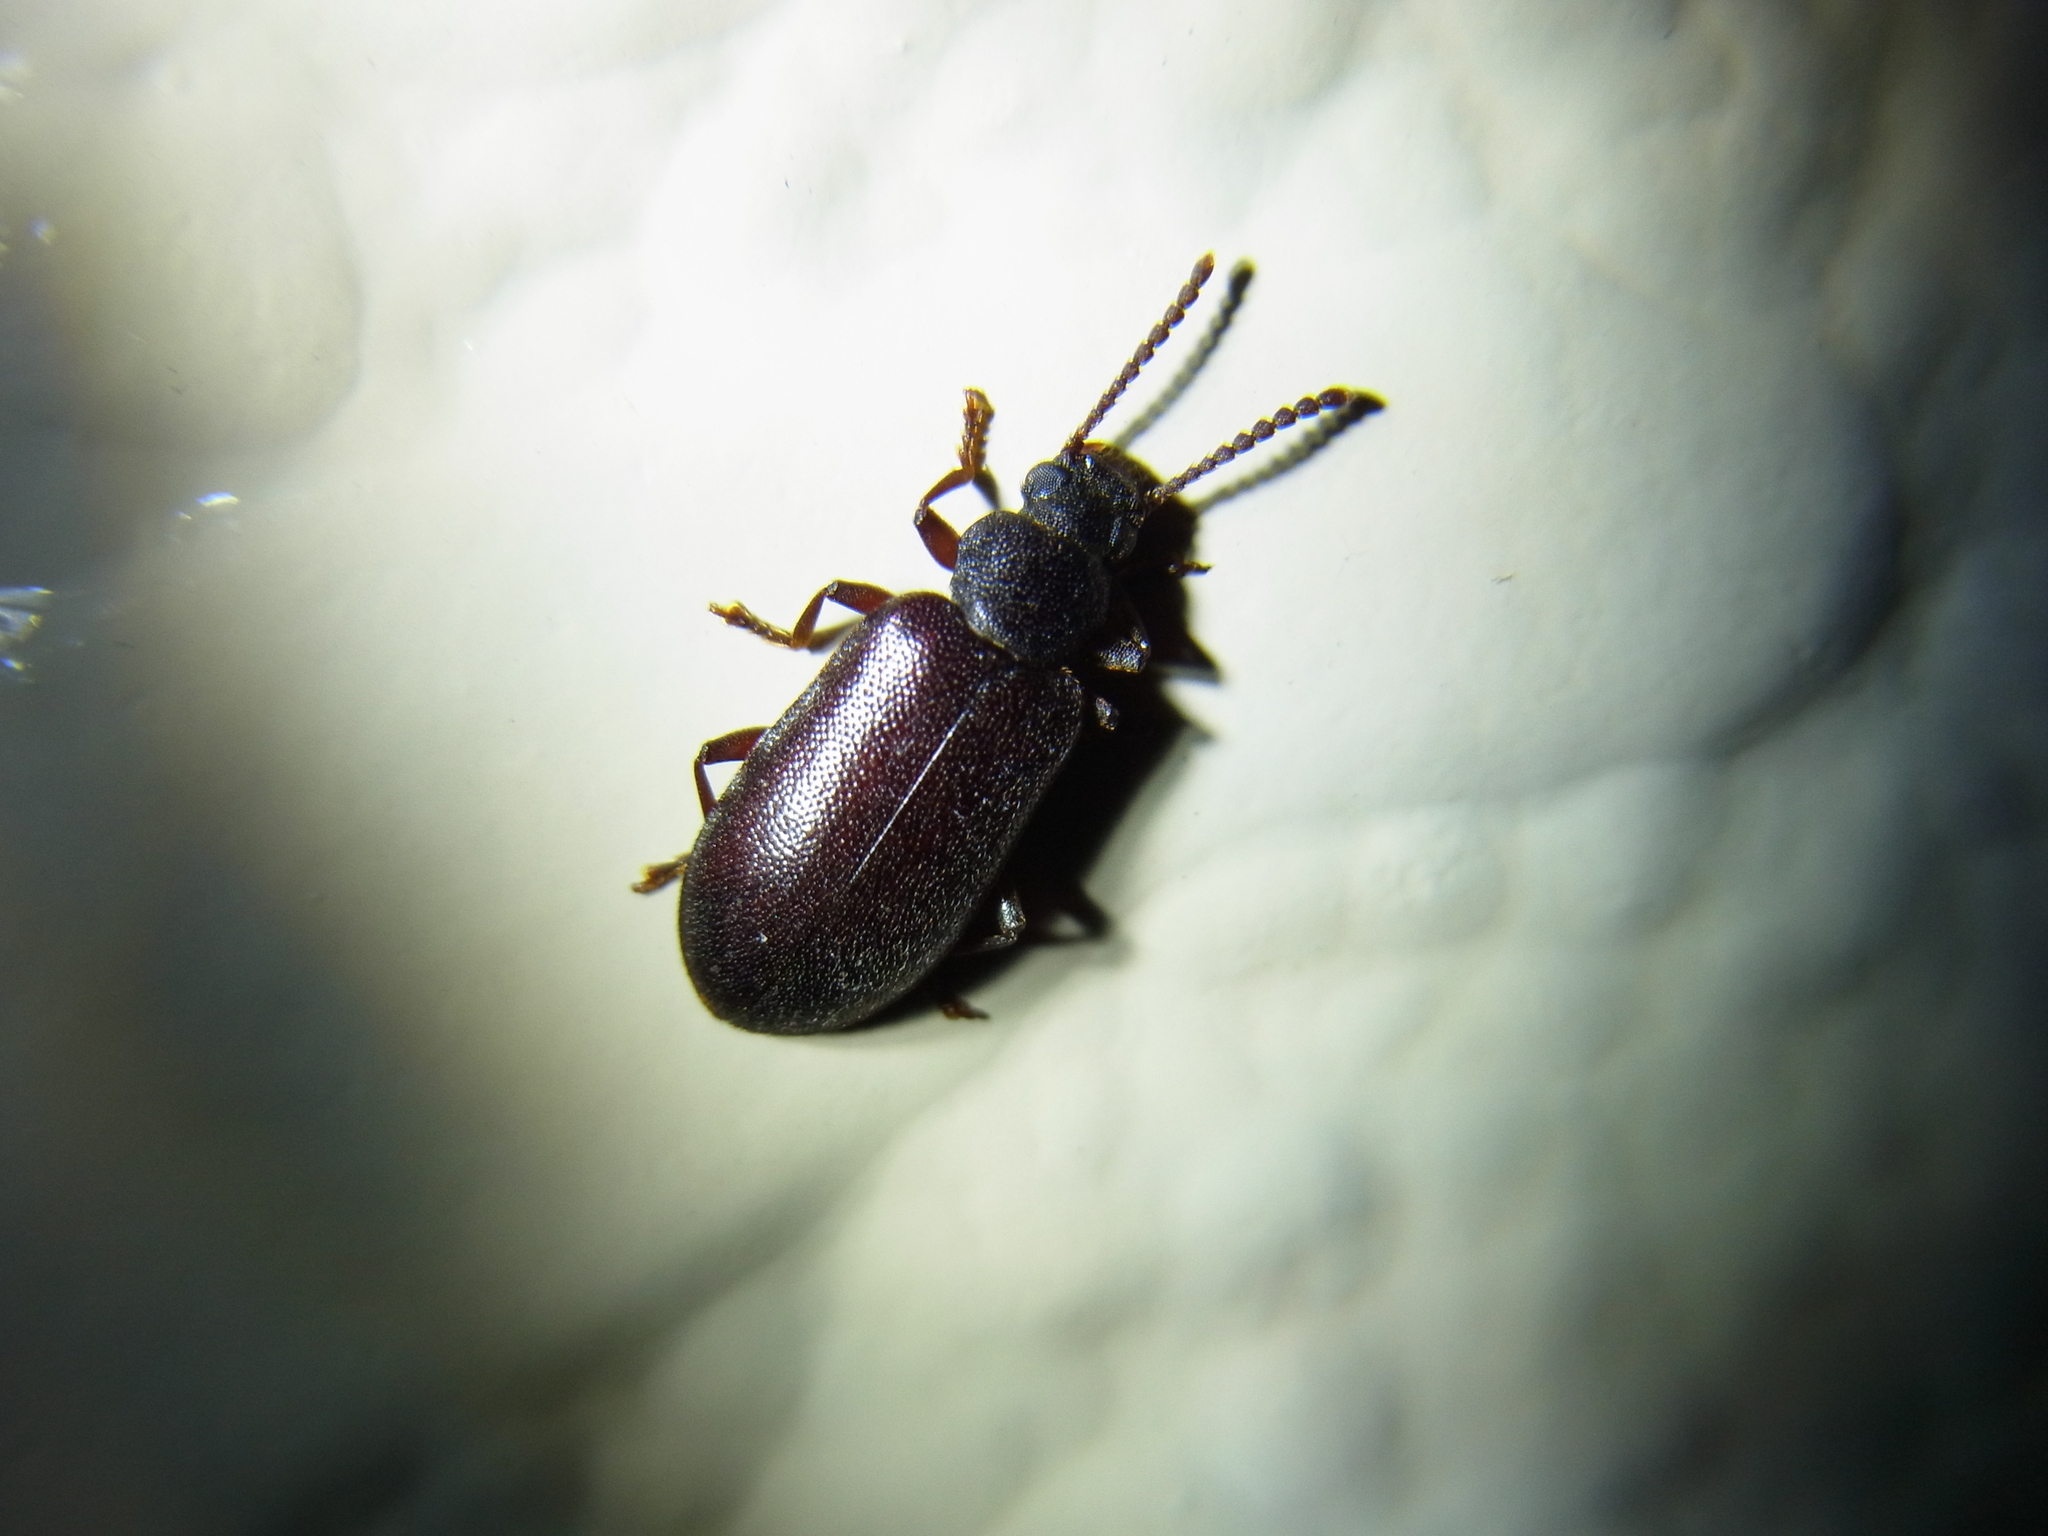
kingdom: Animalia
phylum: Arthropoda
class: Insecta
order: Coleoptera
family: Tenebrionidae
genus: Luprops
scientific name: Luprops orientalis
